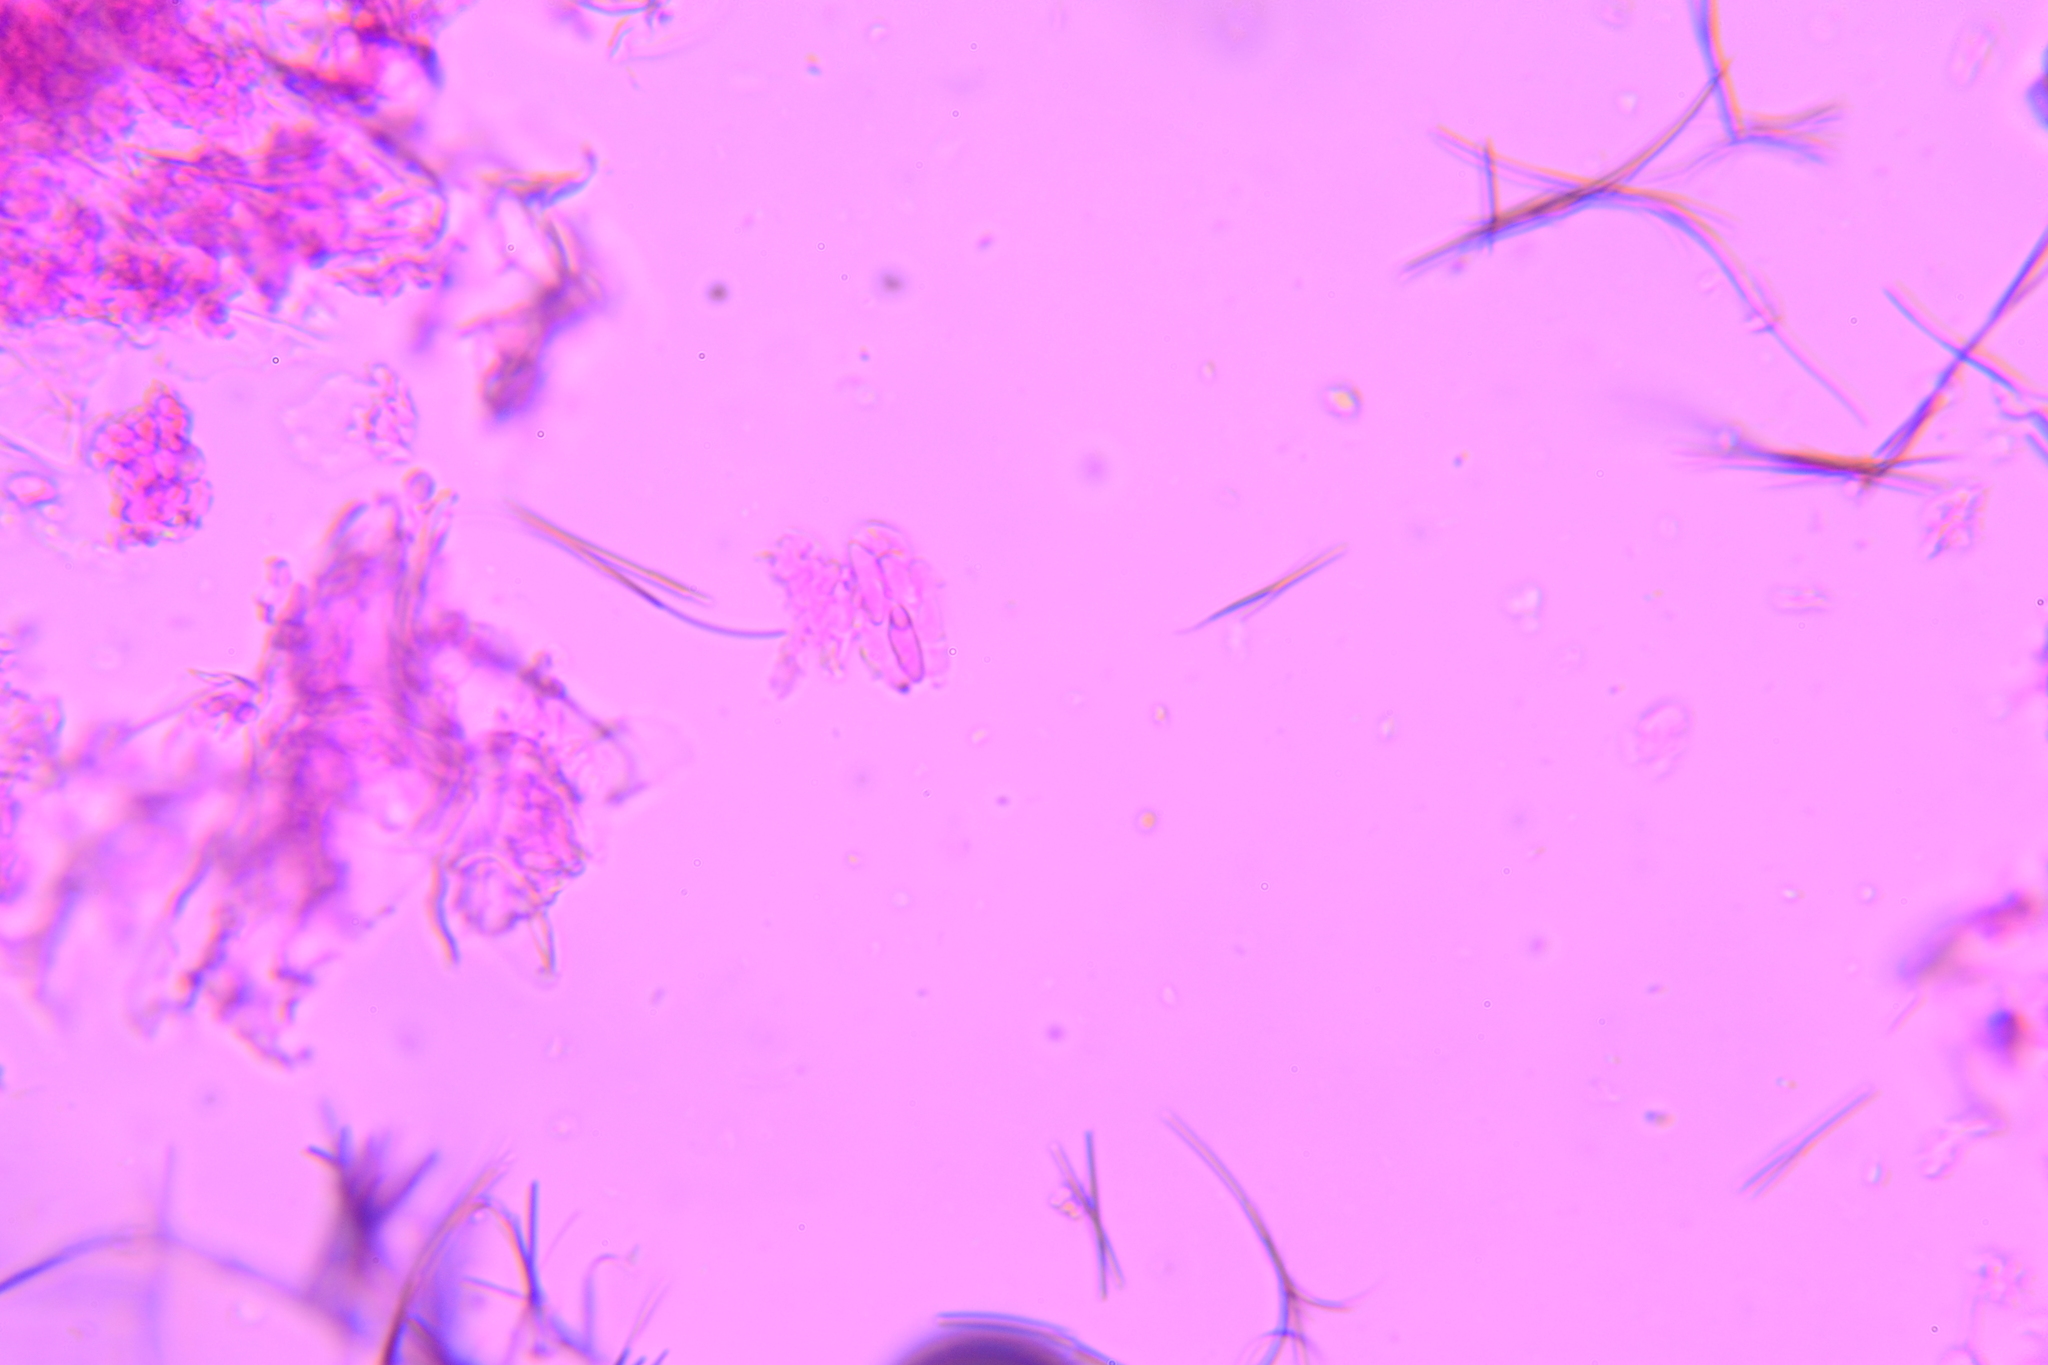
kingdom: Fungi
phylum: Basidiomycota
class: Exobasidiomycetes
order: Exobasidiales
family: Exobasidiaceae
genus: Exobasidium
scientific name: Exobasidium rostrupii
